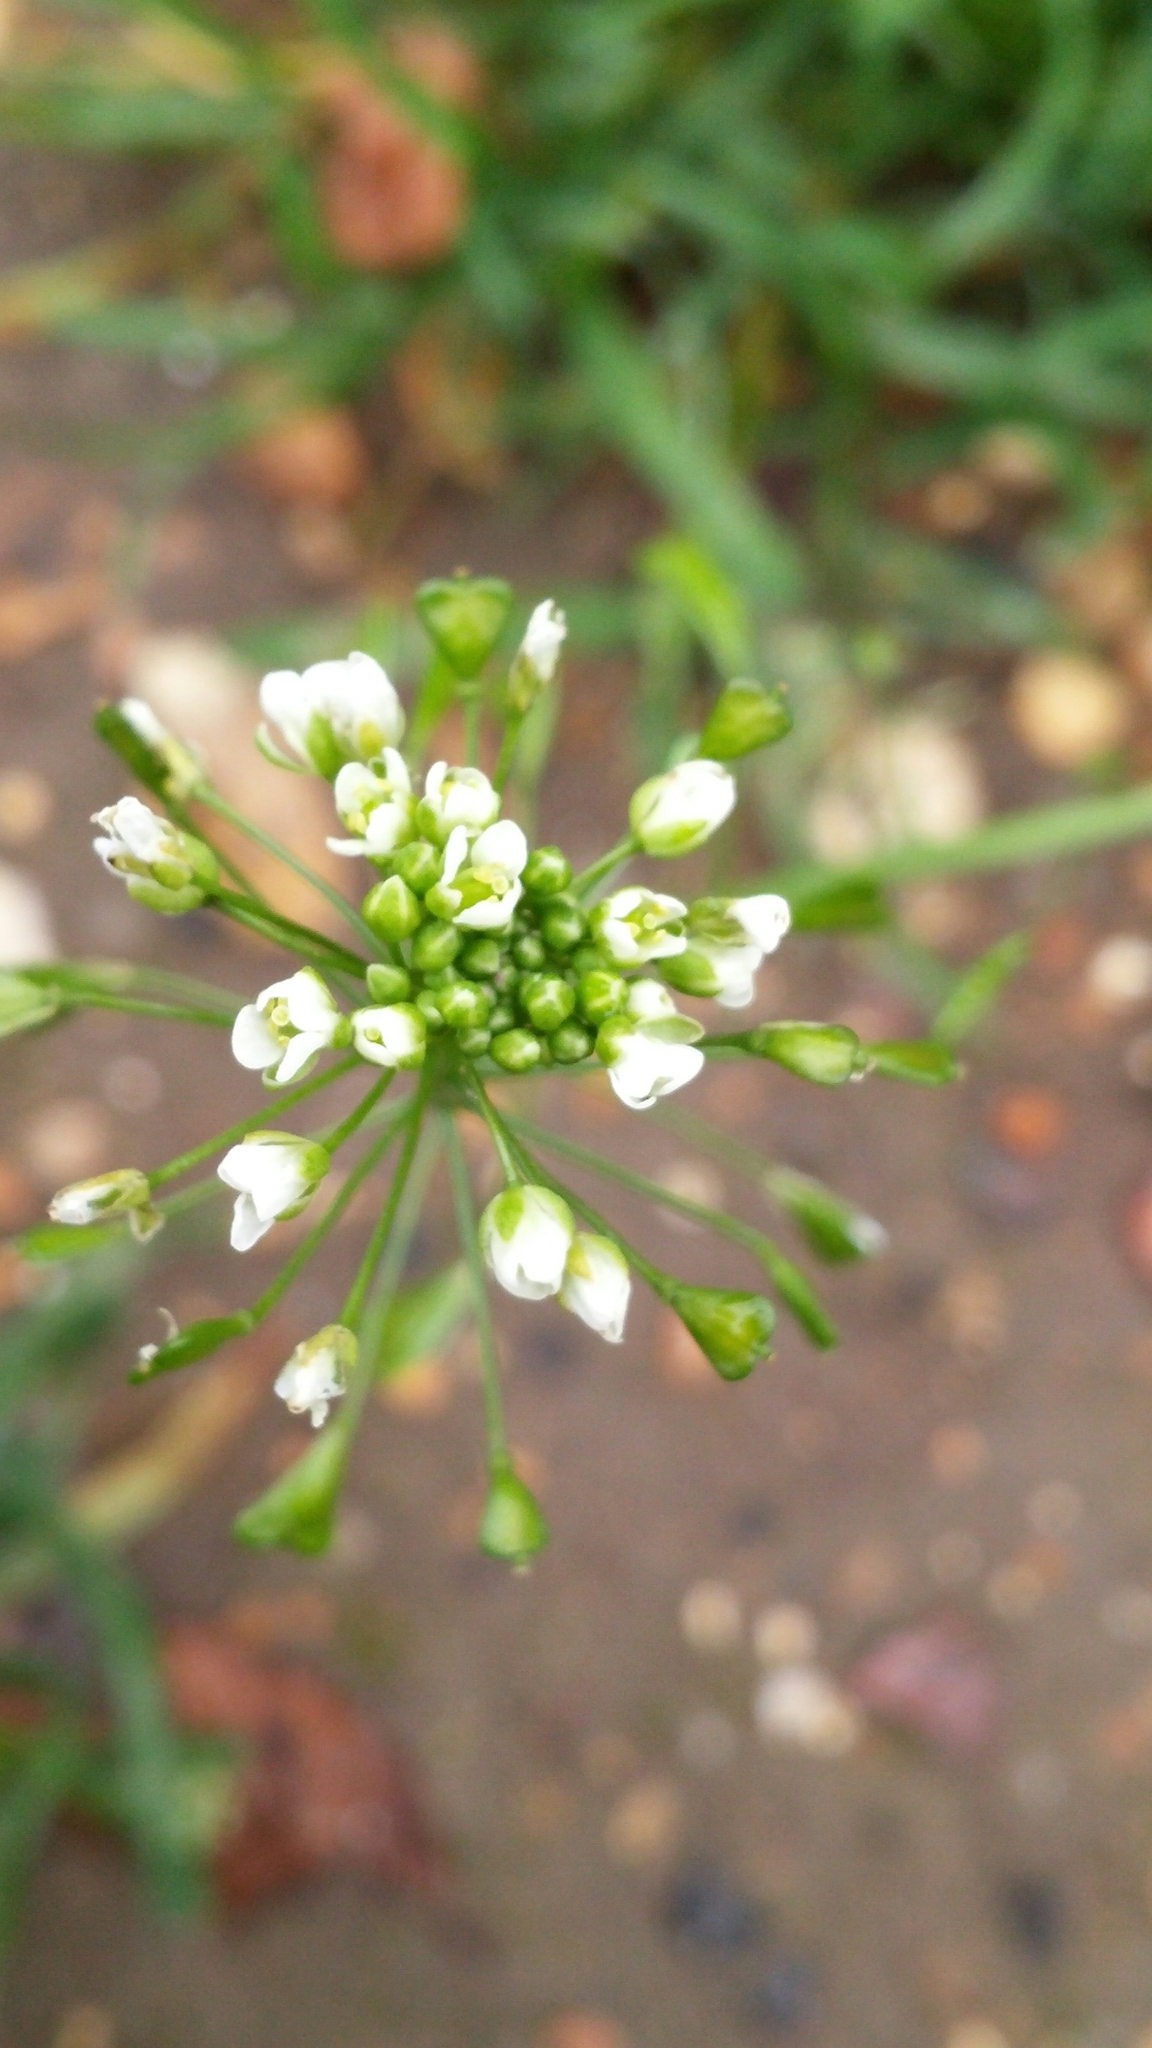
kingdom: Plantae
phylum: Tracheophyta
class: Magnoliopsida
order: Brassicales
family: Brassicaceae
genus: Capsella
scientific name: Capsella bursa-pastoris
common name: Shepherd's purse
